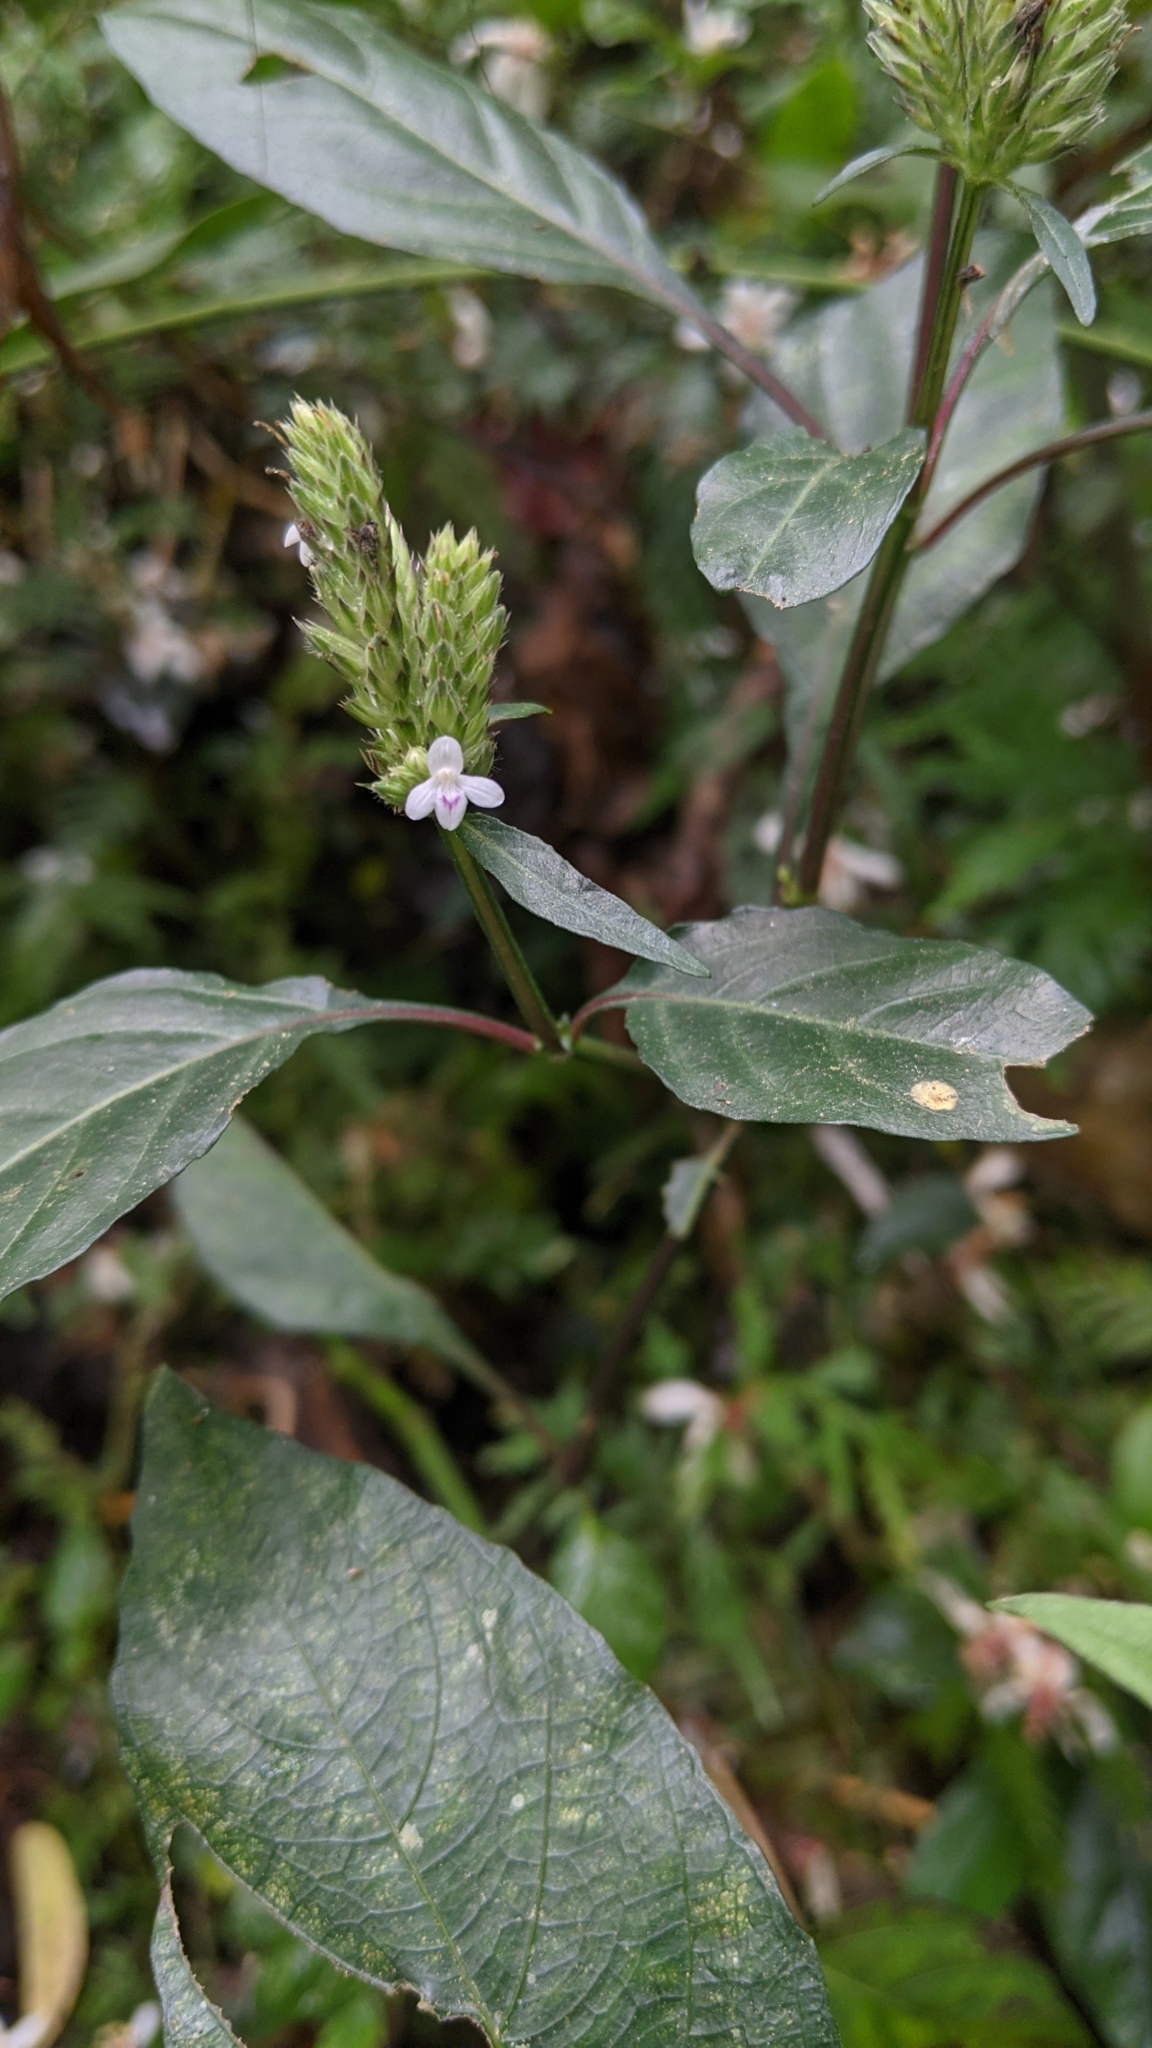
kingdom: Plantae
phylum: Tracheophyta
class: Magnoliopsida
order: Lamiales
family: Acanthaceae
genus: Lepidagathis
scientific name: Lepidagathis formosensis
